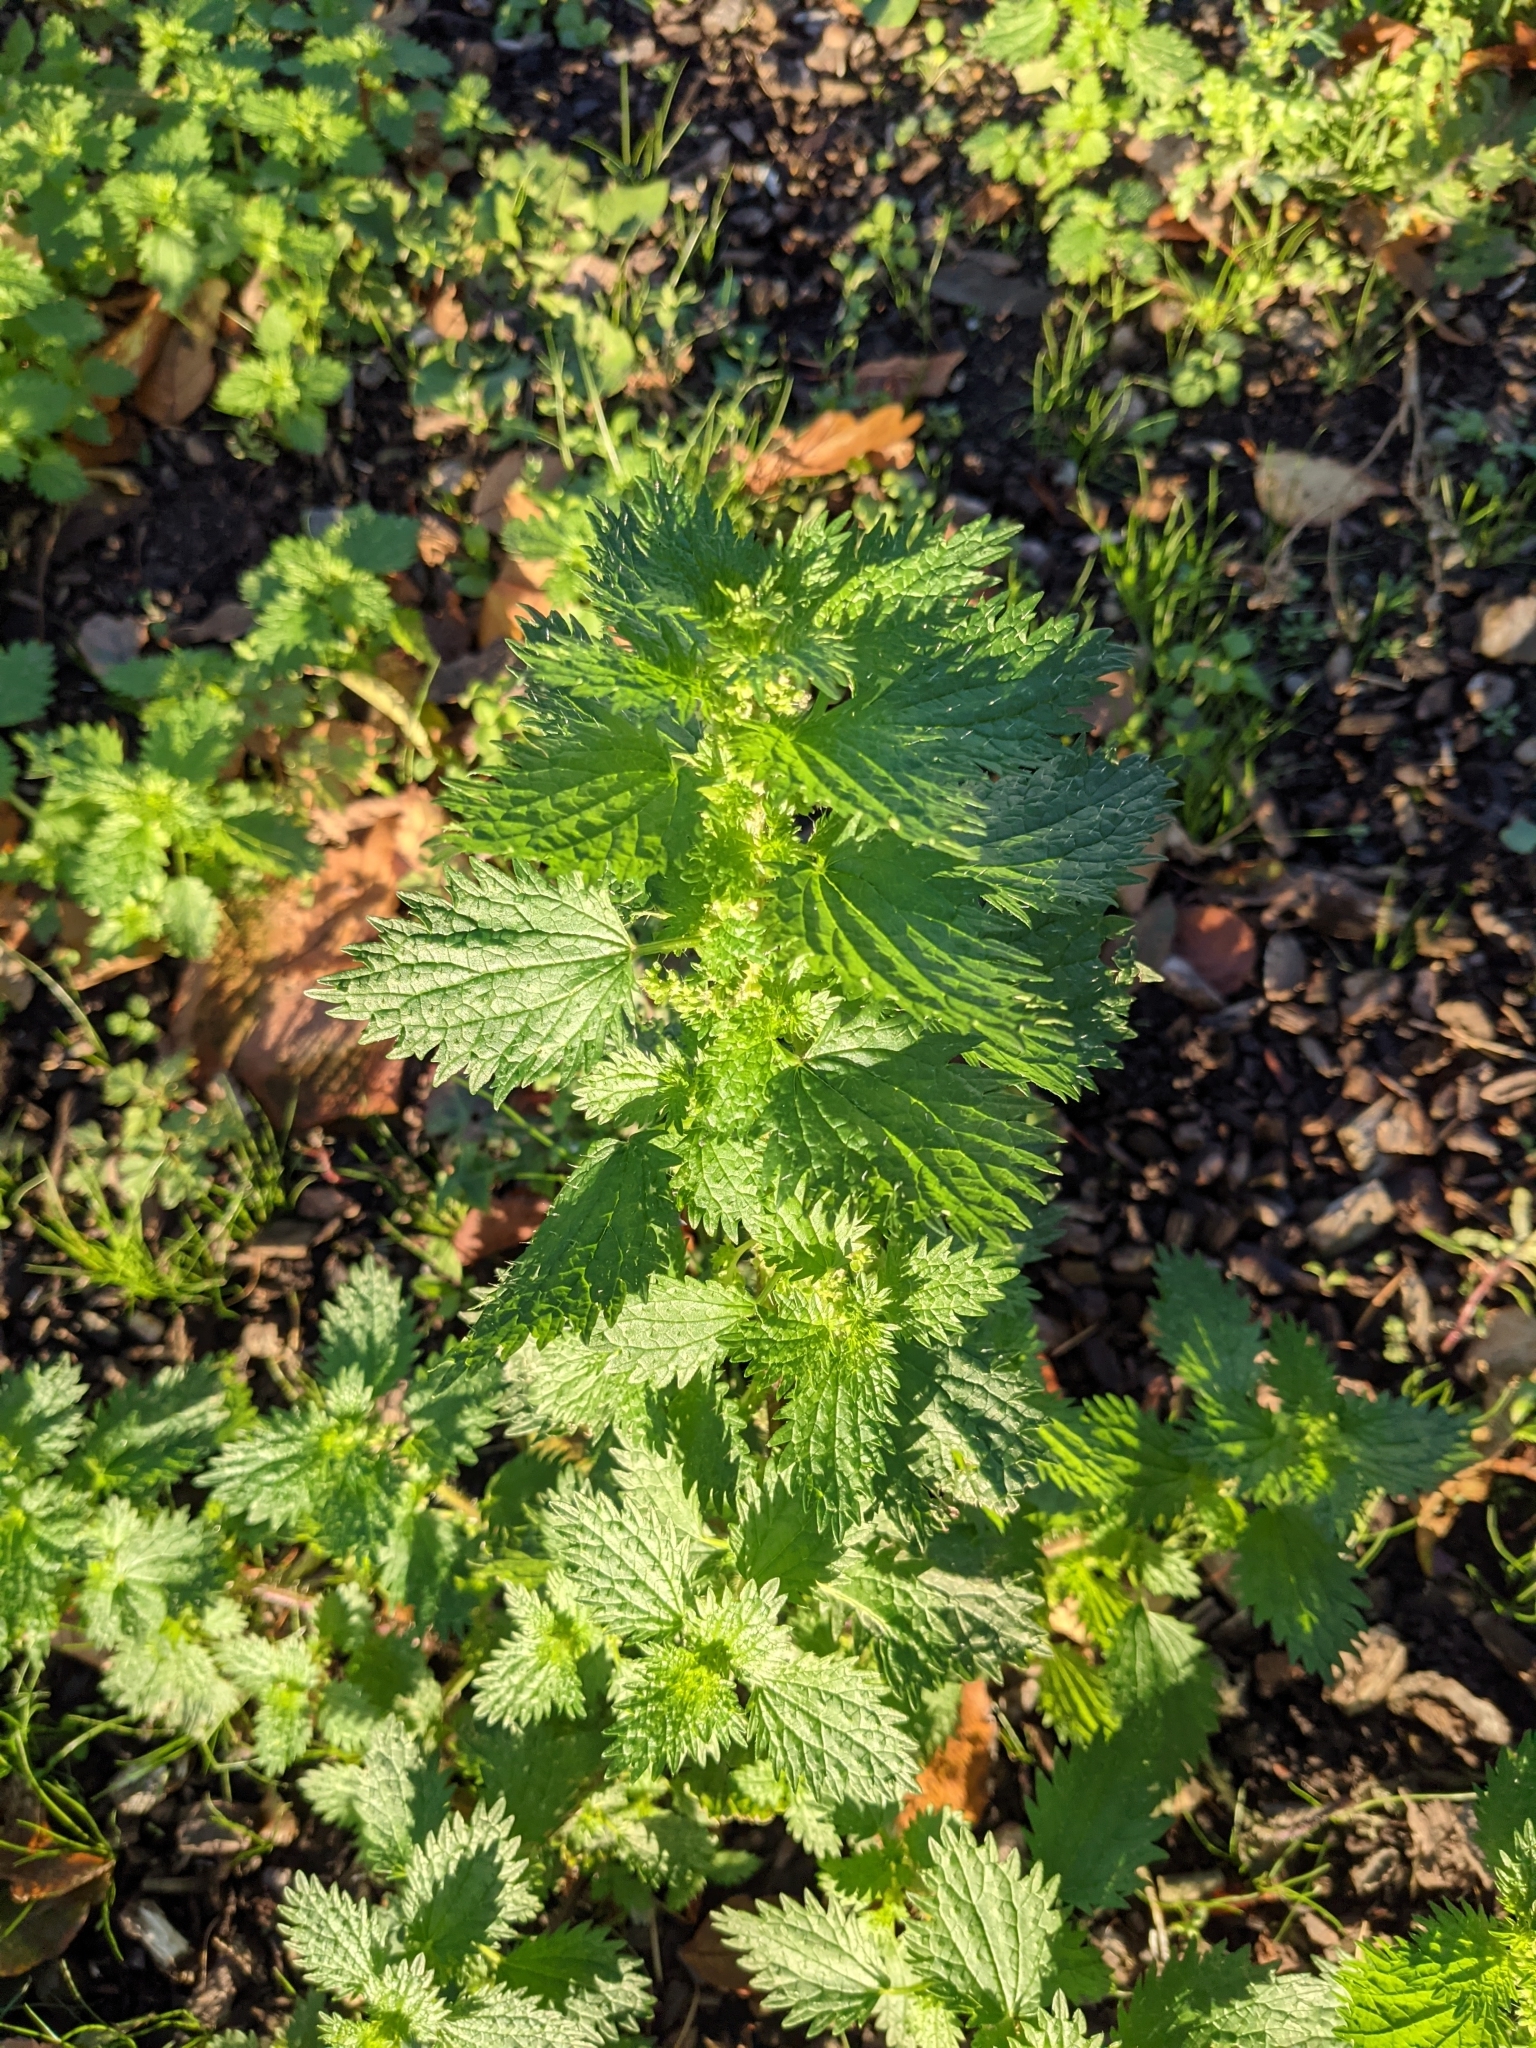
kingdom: Plantae
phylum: Tracheophyta
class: Magnoliopsida
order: Rosales
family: Urticaceae
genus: Urtica
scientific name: Urtica urens
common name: Dwarf nettle
